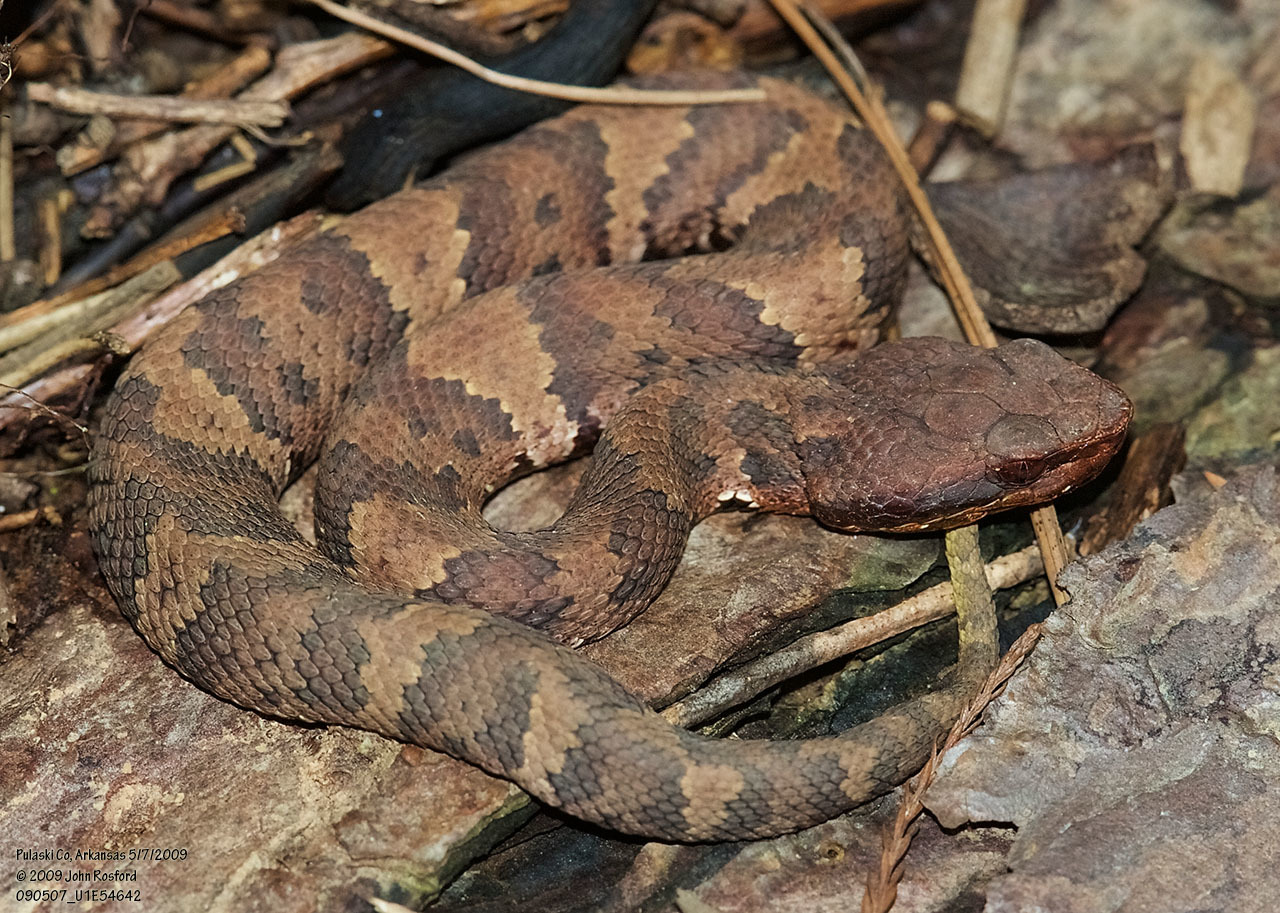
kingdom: Animalia
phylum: Chordata
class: Squamata
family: Viperidae
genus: Agkistrodon
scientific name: Agkistrodon piscivorus
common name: Cottonmouth
